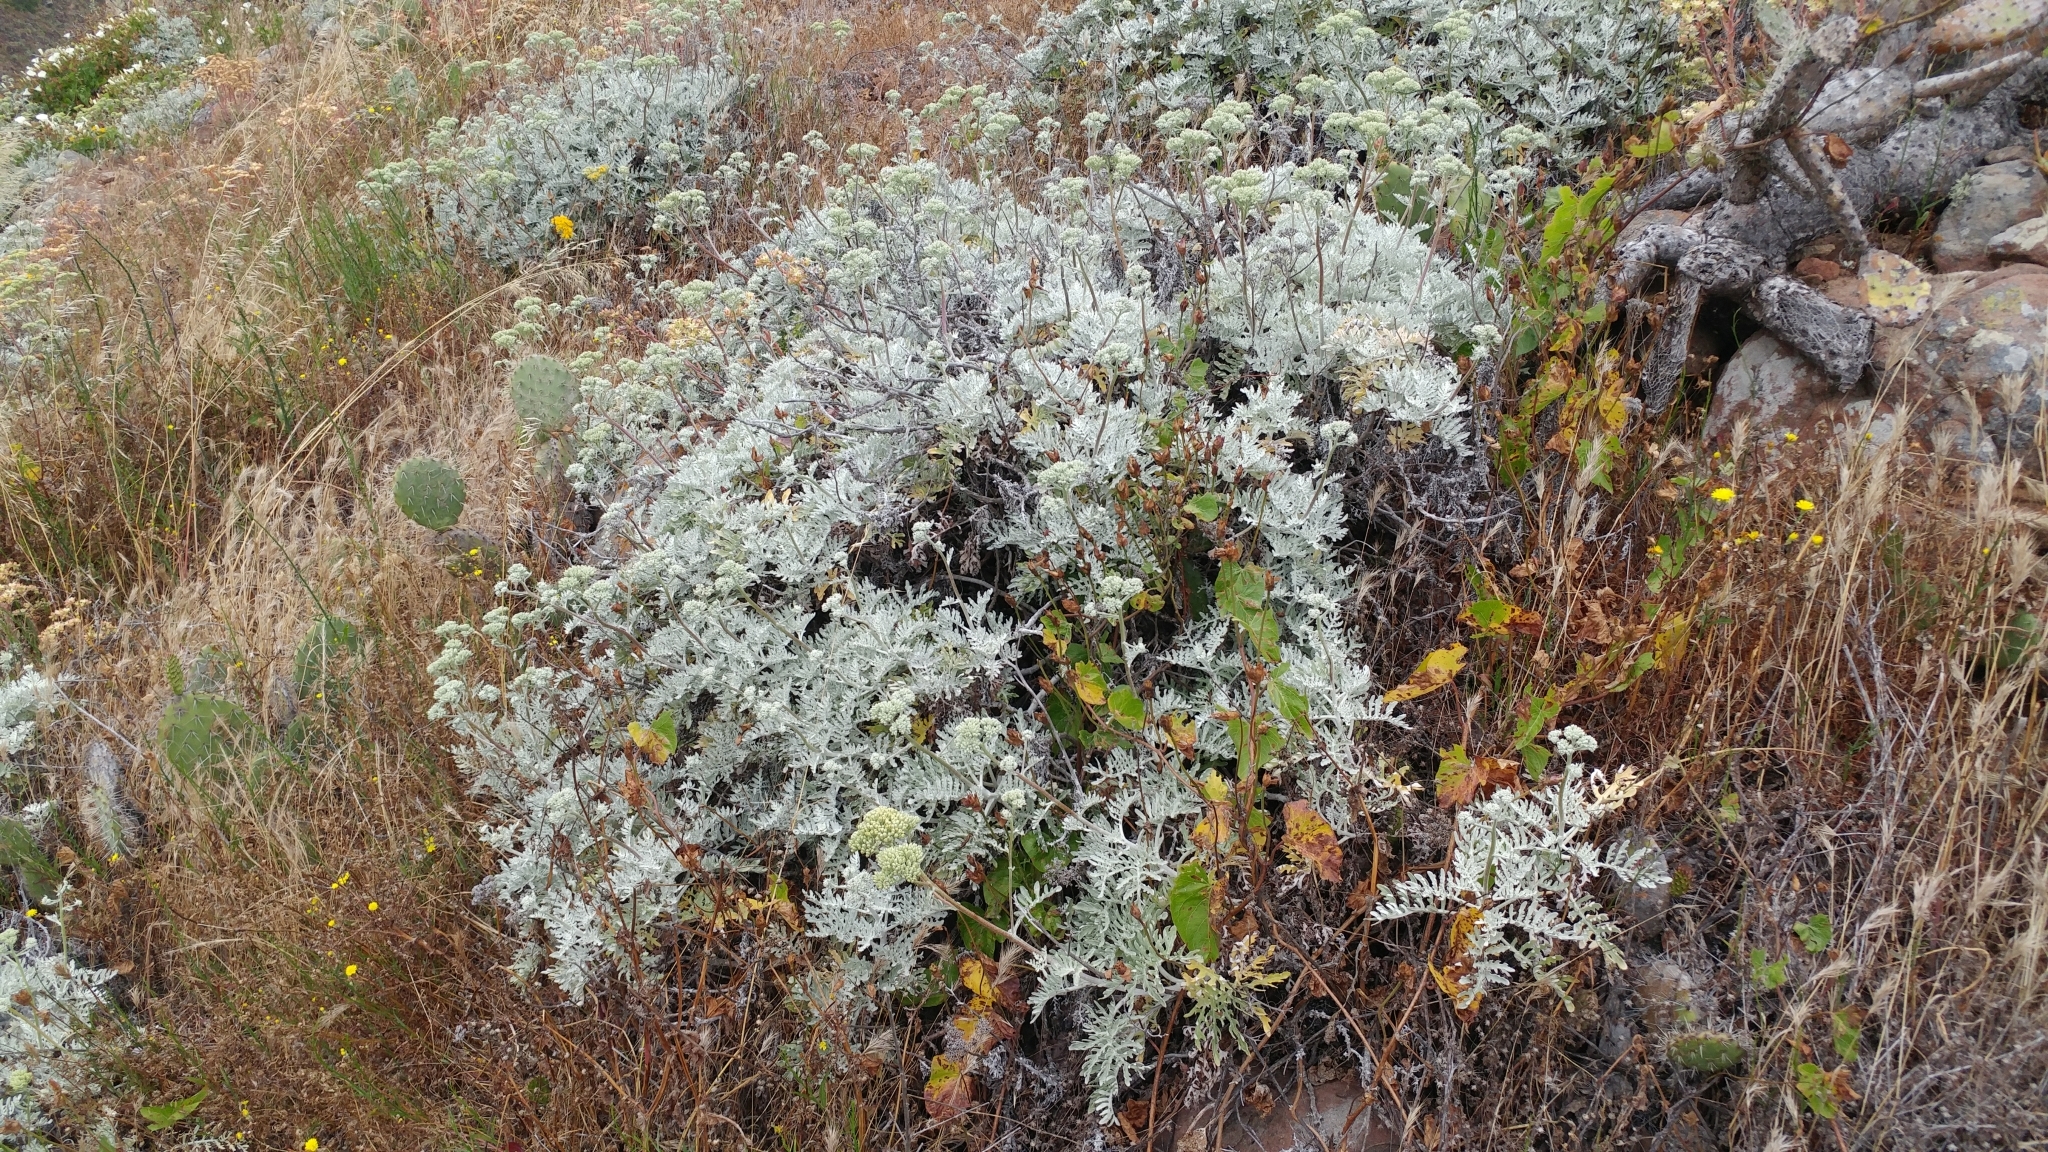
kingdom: Plantae
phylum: Tracheophyta
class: Magnoliopsida
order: Asterales
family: Asteraceae
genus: Constancea
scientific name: Constancea nevinii
